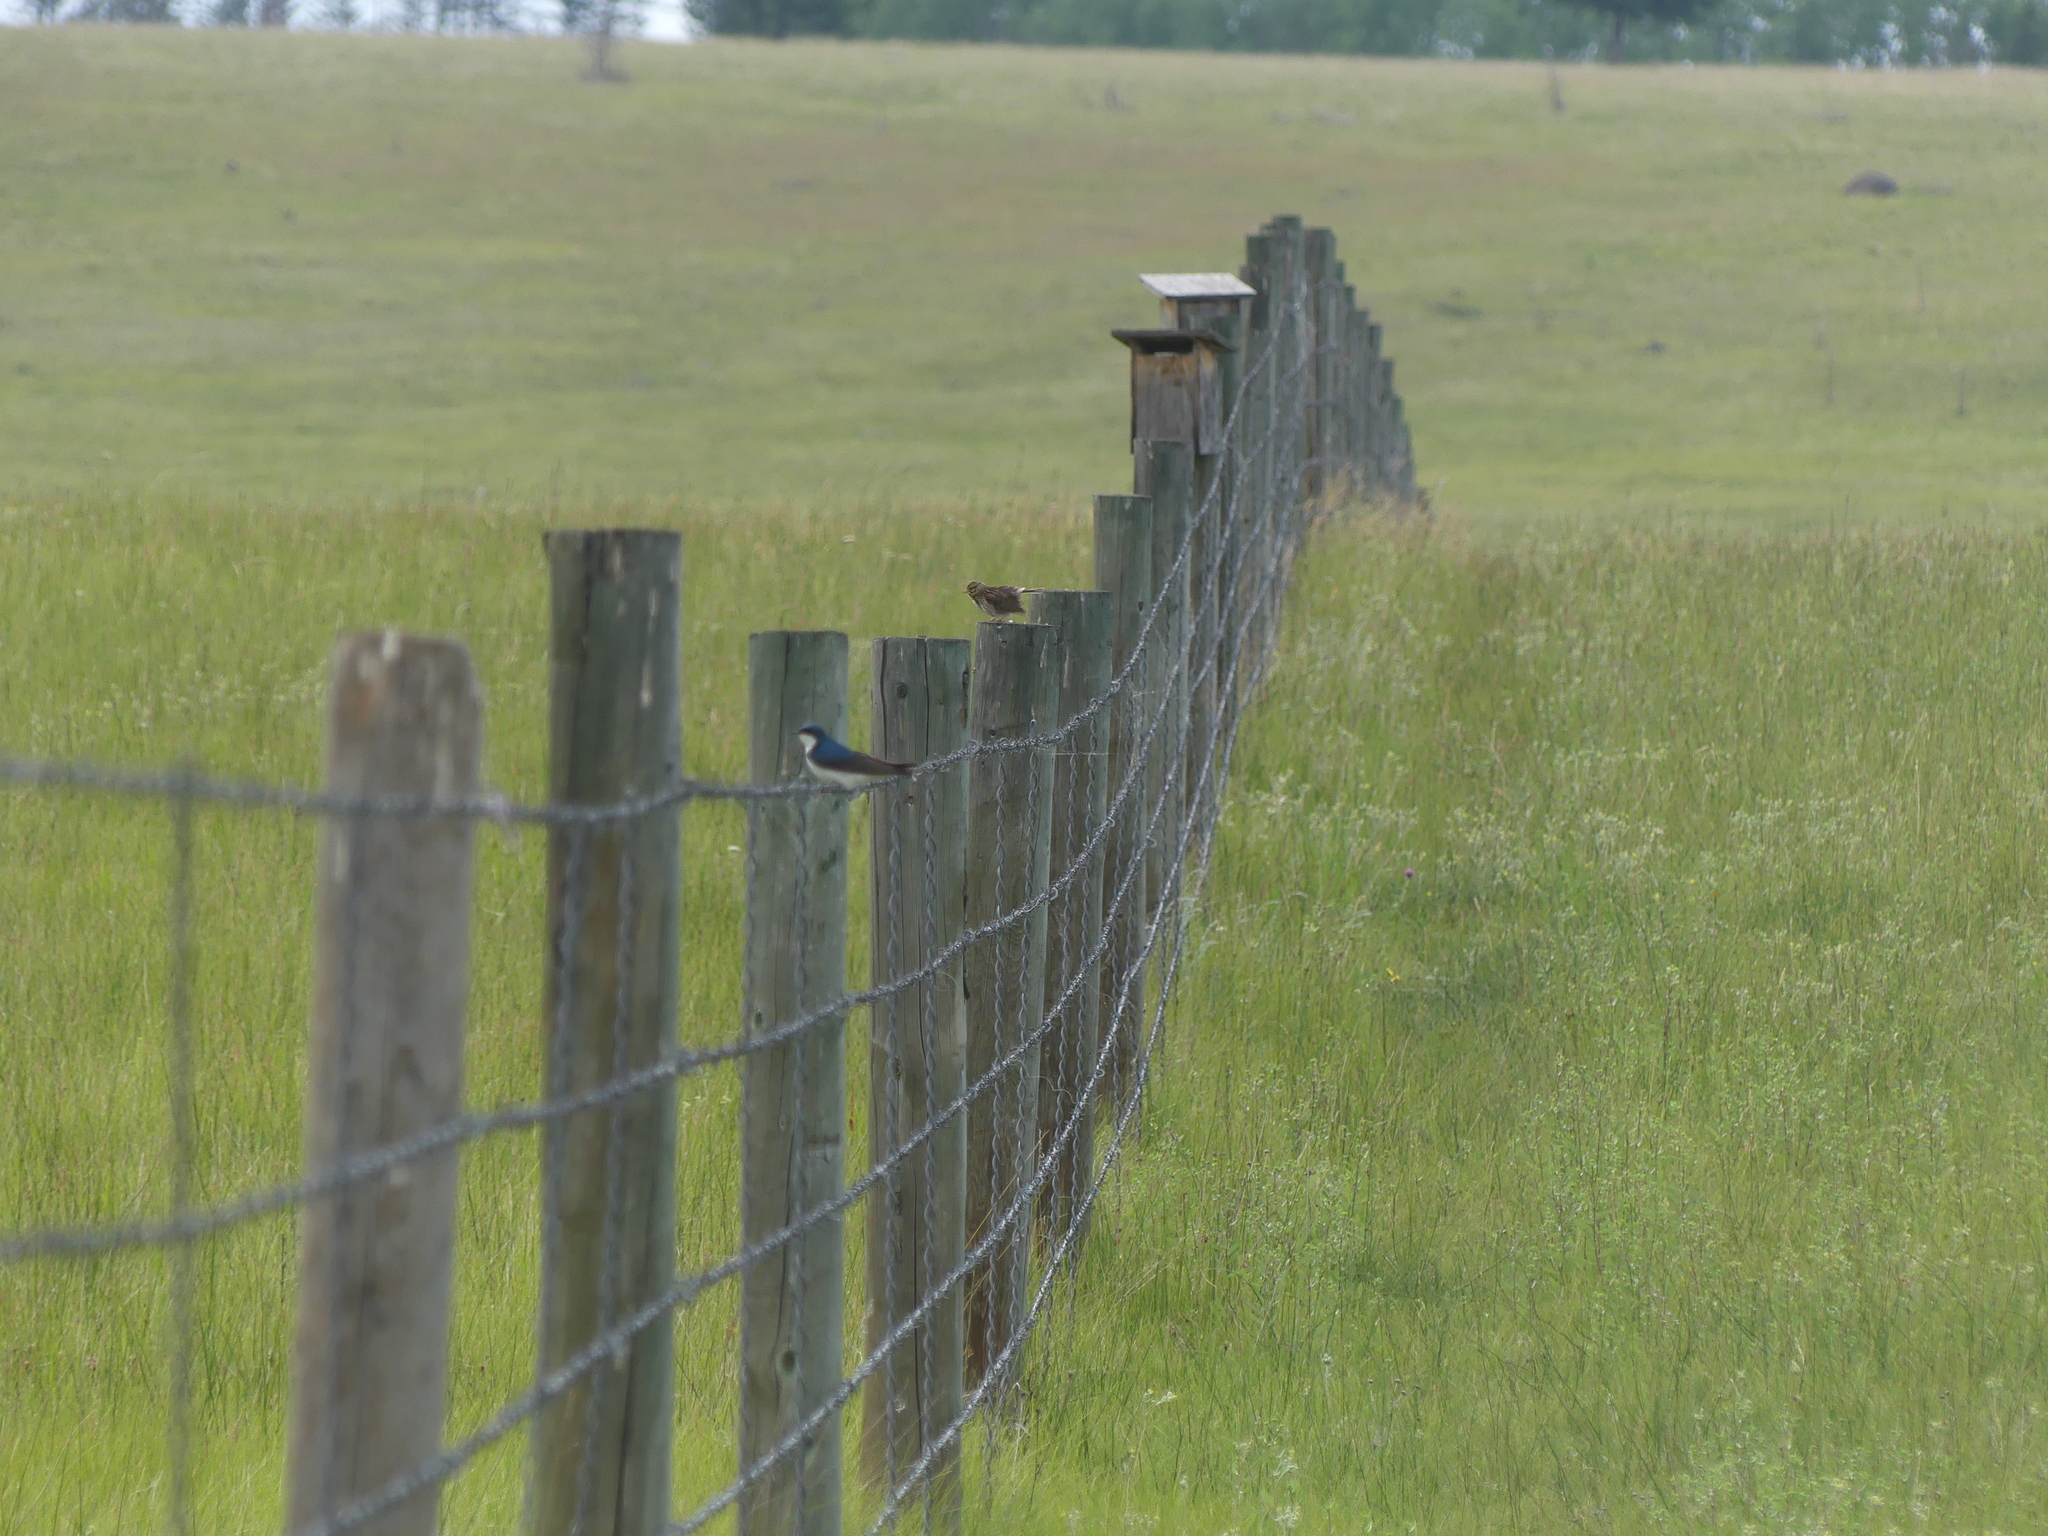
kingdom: Animalia
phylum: Chordata
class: Aves
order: Passeriformes
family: Passerellidae
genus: Passerculus
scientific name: Passerculus sandwichensis
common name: Savannah sparrow
